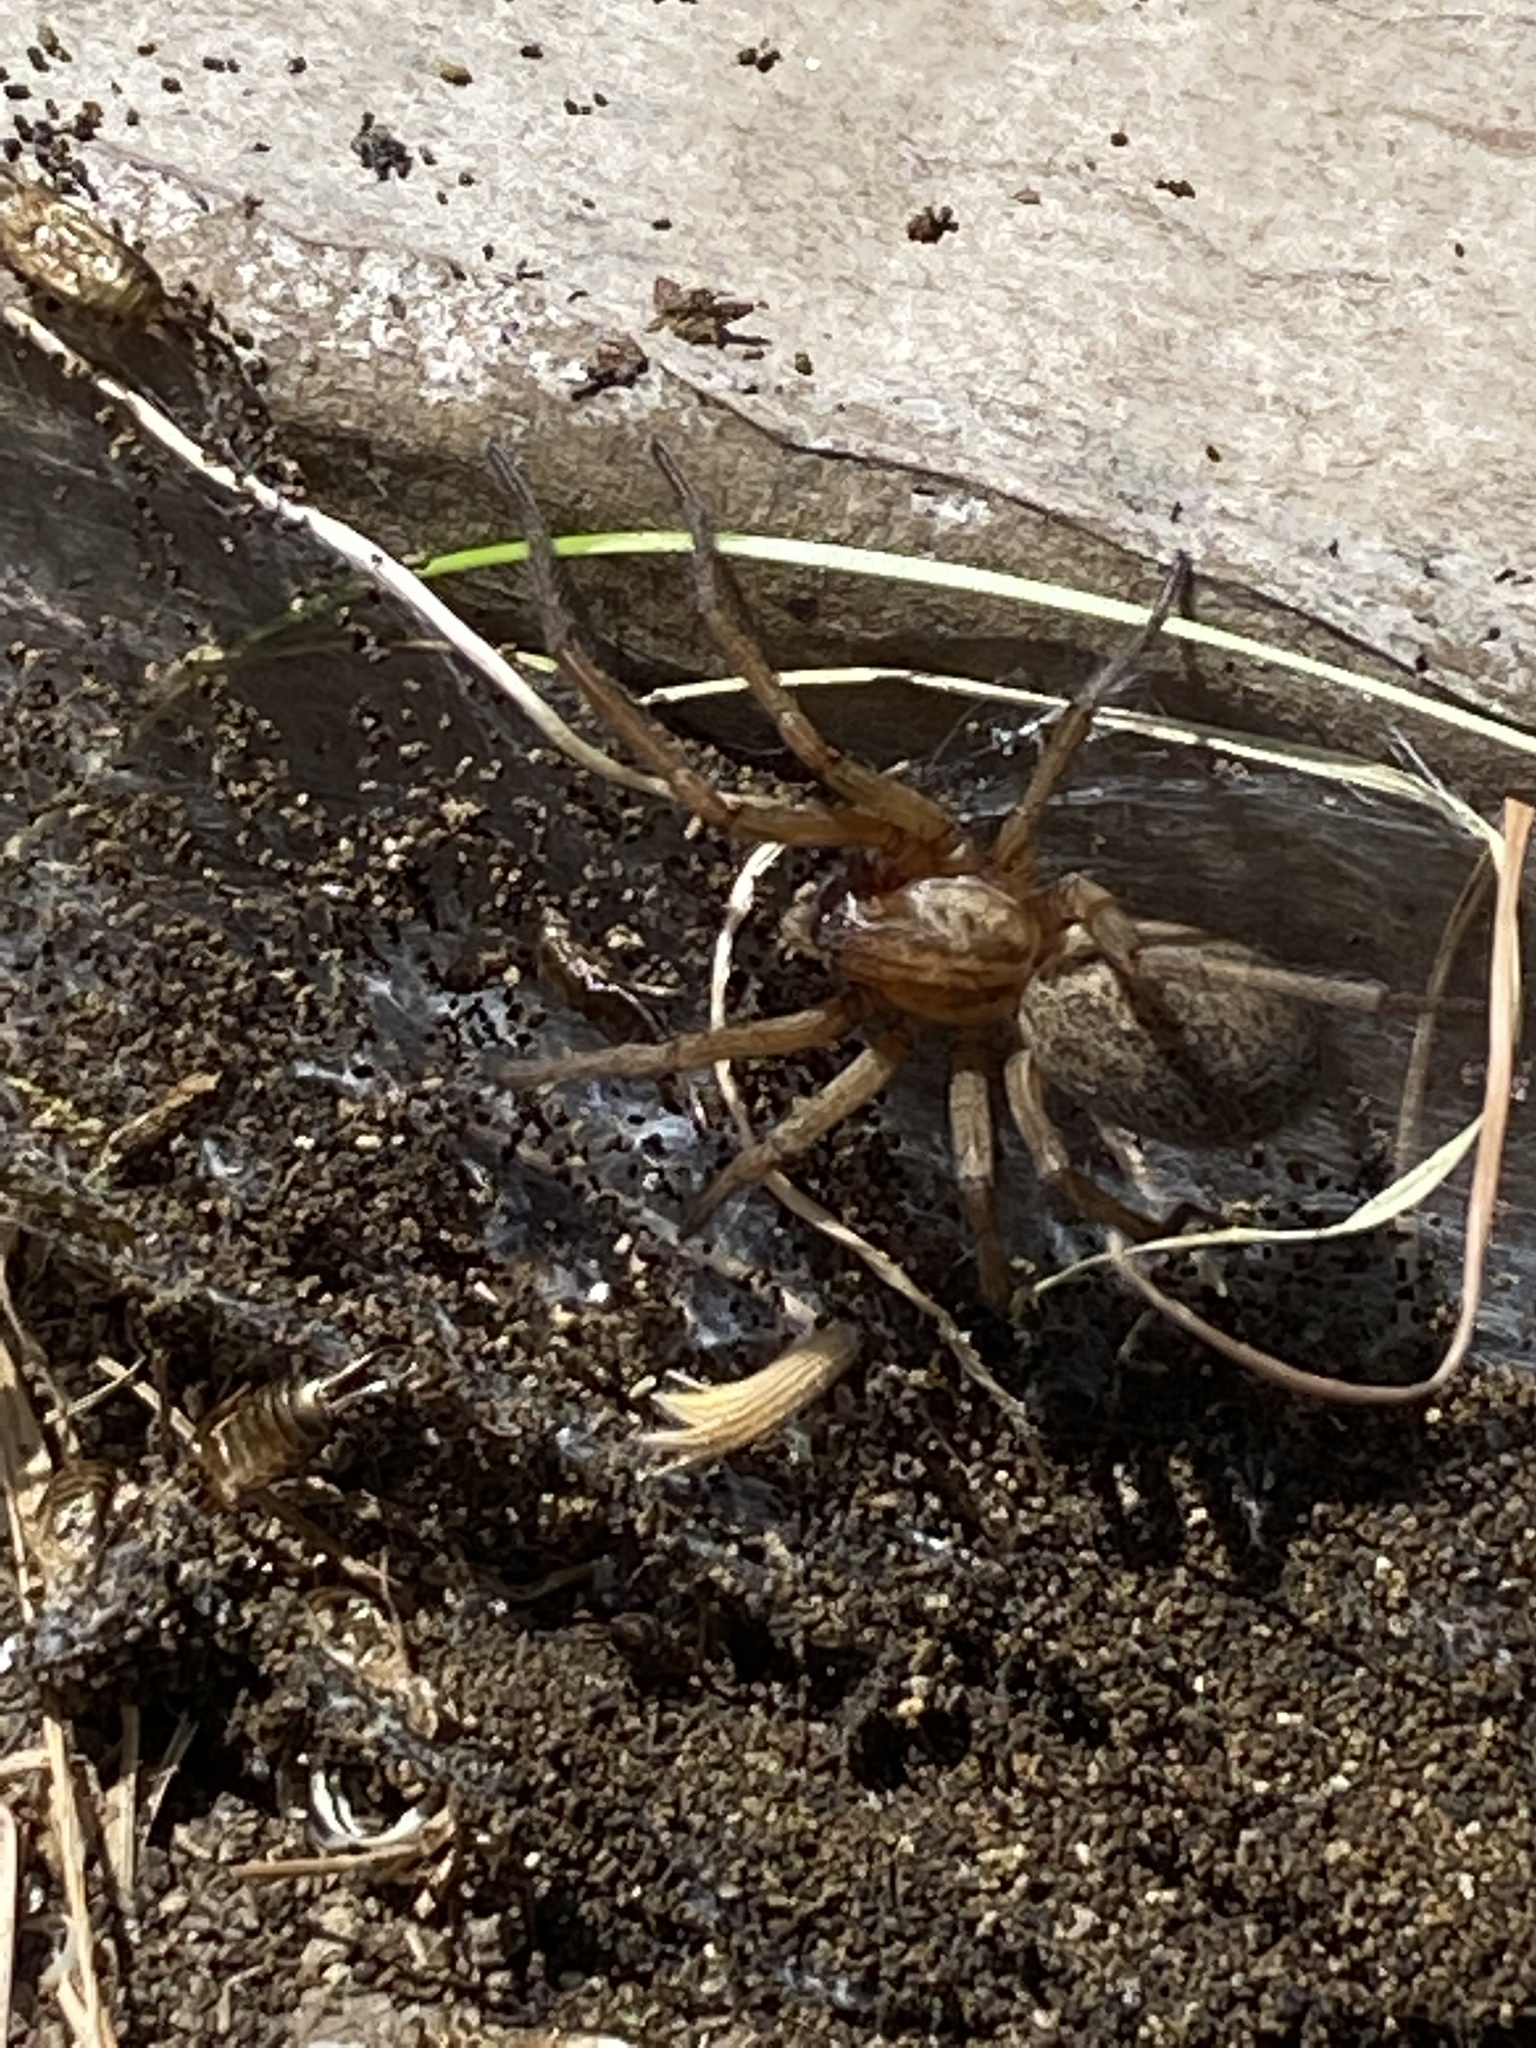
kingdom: Animalia
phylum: Arthropoda
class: Arachnida
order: Araneae
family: Agelenidae
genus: Eratigena
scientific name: Eratigena agrestis
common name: Hobo spider
